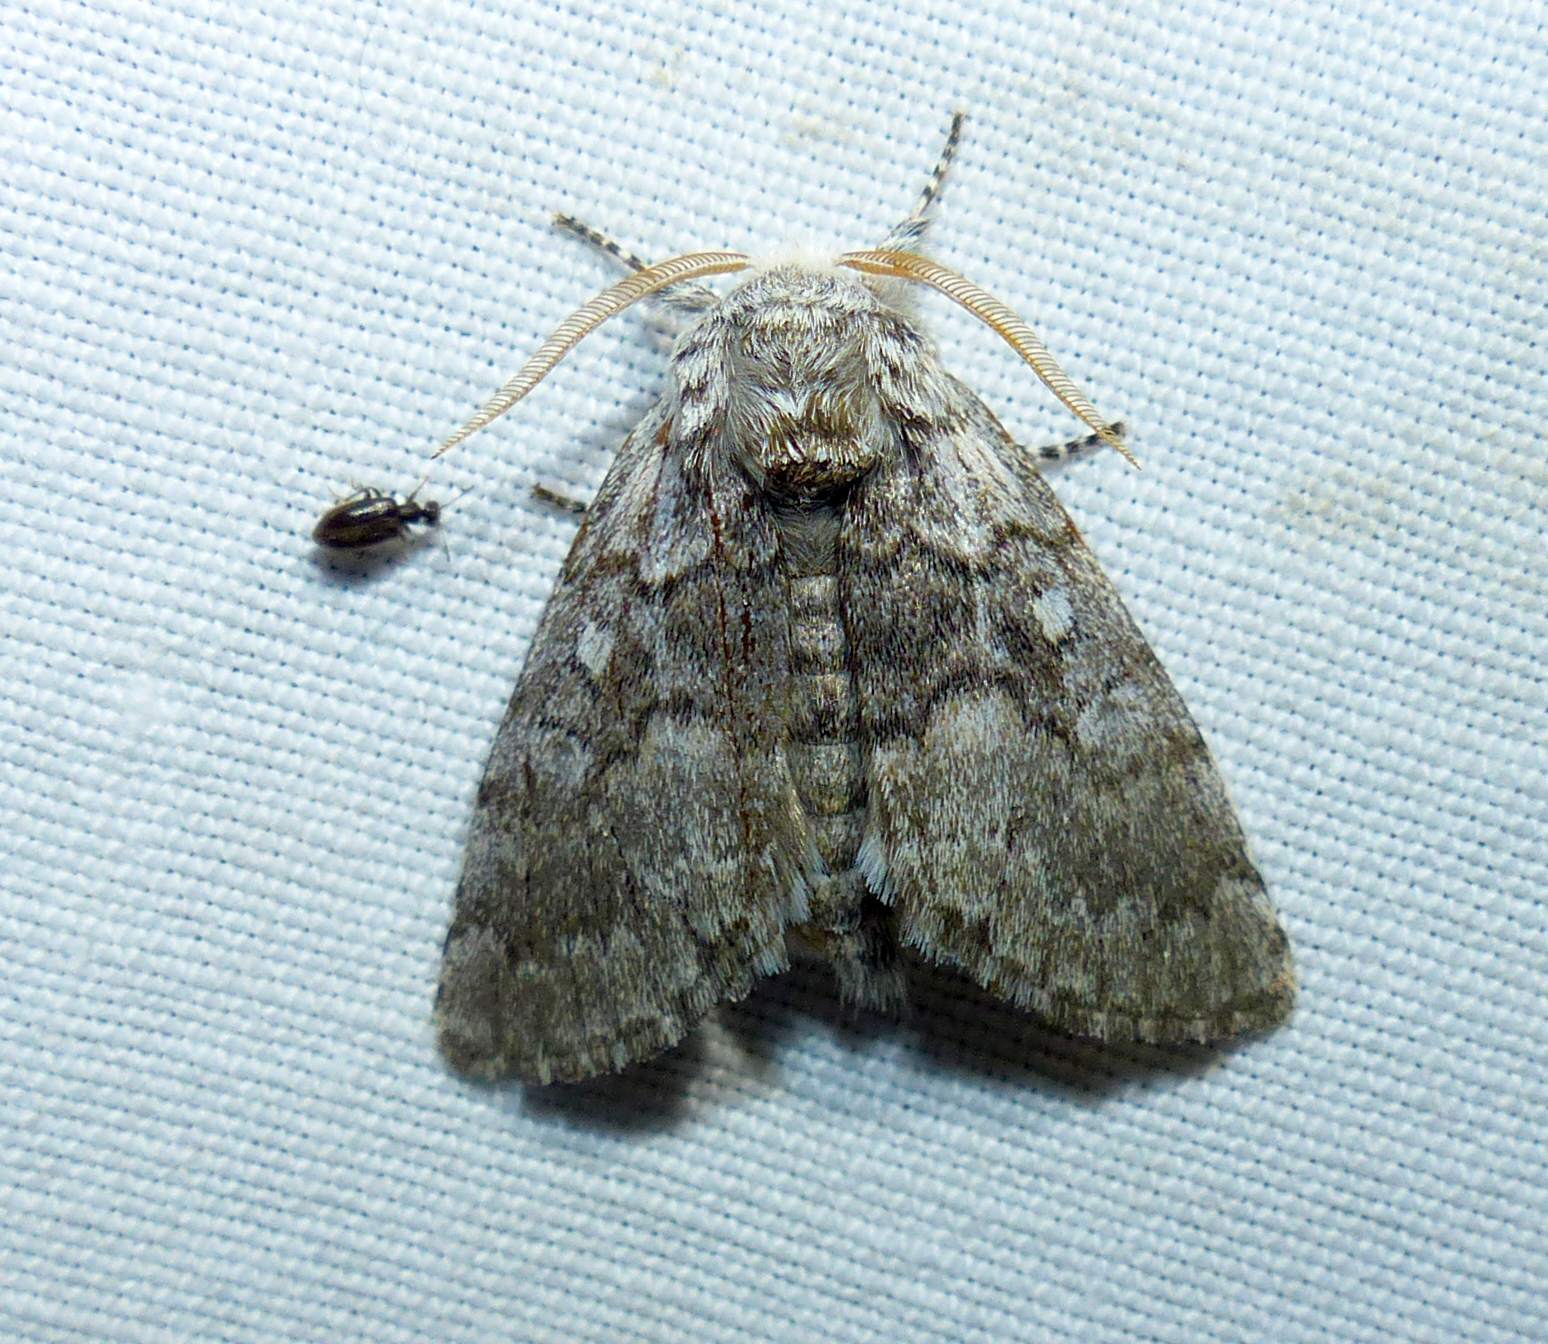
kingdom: Animalia
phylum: Arthropoda
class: Insecta
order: Lepidoptera
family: Noctuidae
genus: Colocasia
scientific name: Colocasia propinquilinea
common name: Close-banded demas
